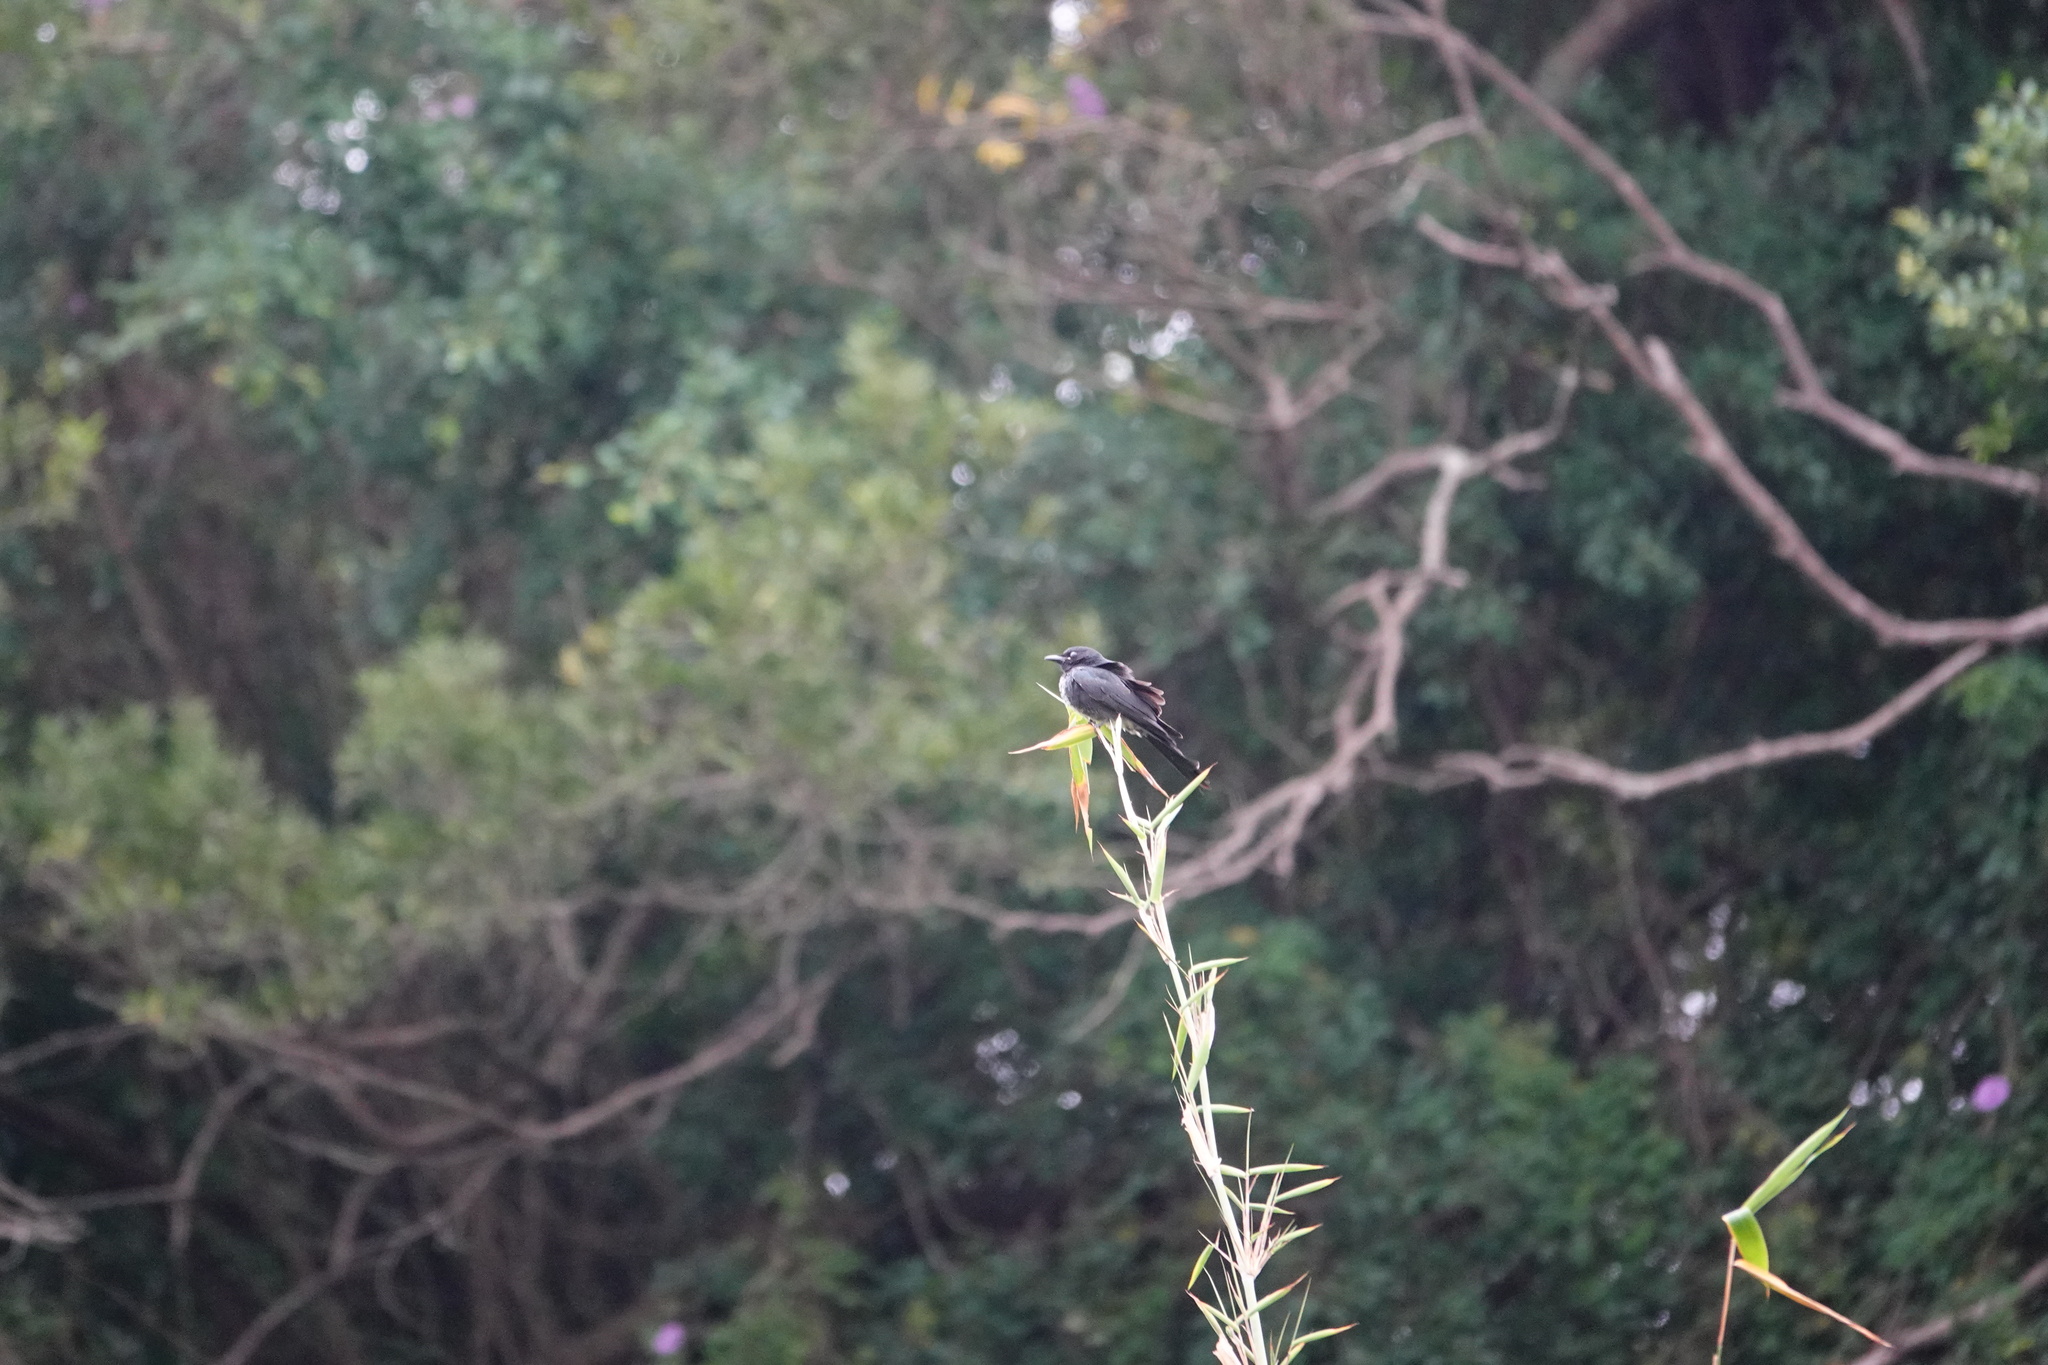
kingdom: Animalia
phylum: Chordata
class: Aves
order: Passeriformes
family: Dicruridae
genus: Dicrurus
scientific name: Dicrurus macrocercus
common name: Black drongo
